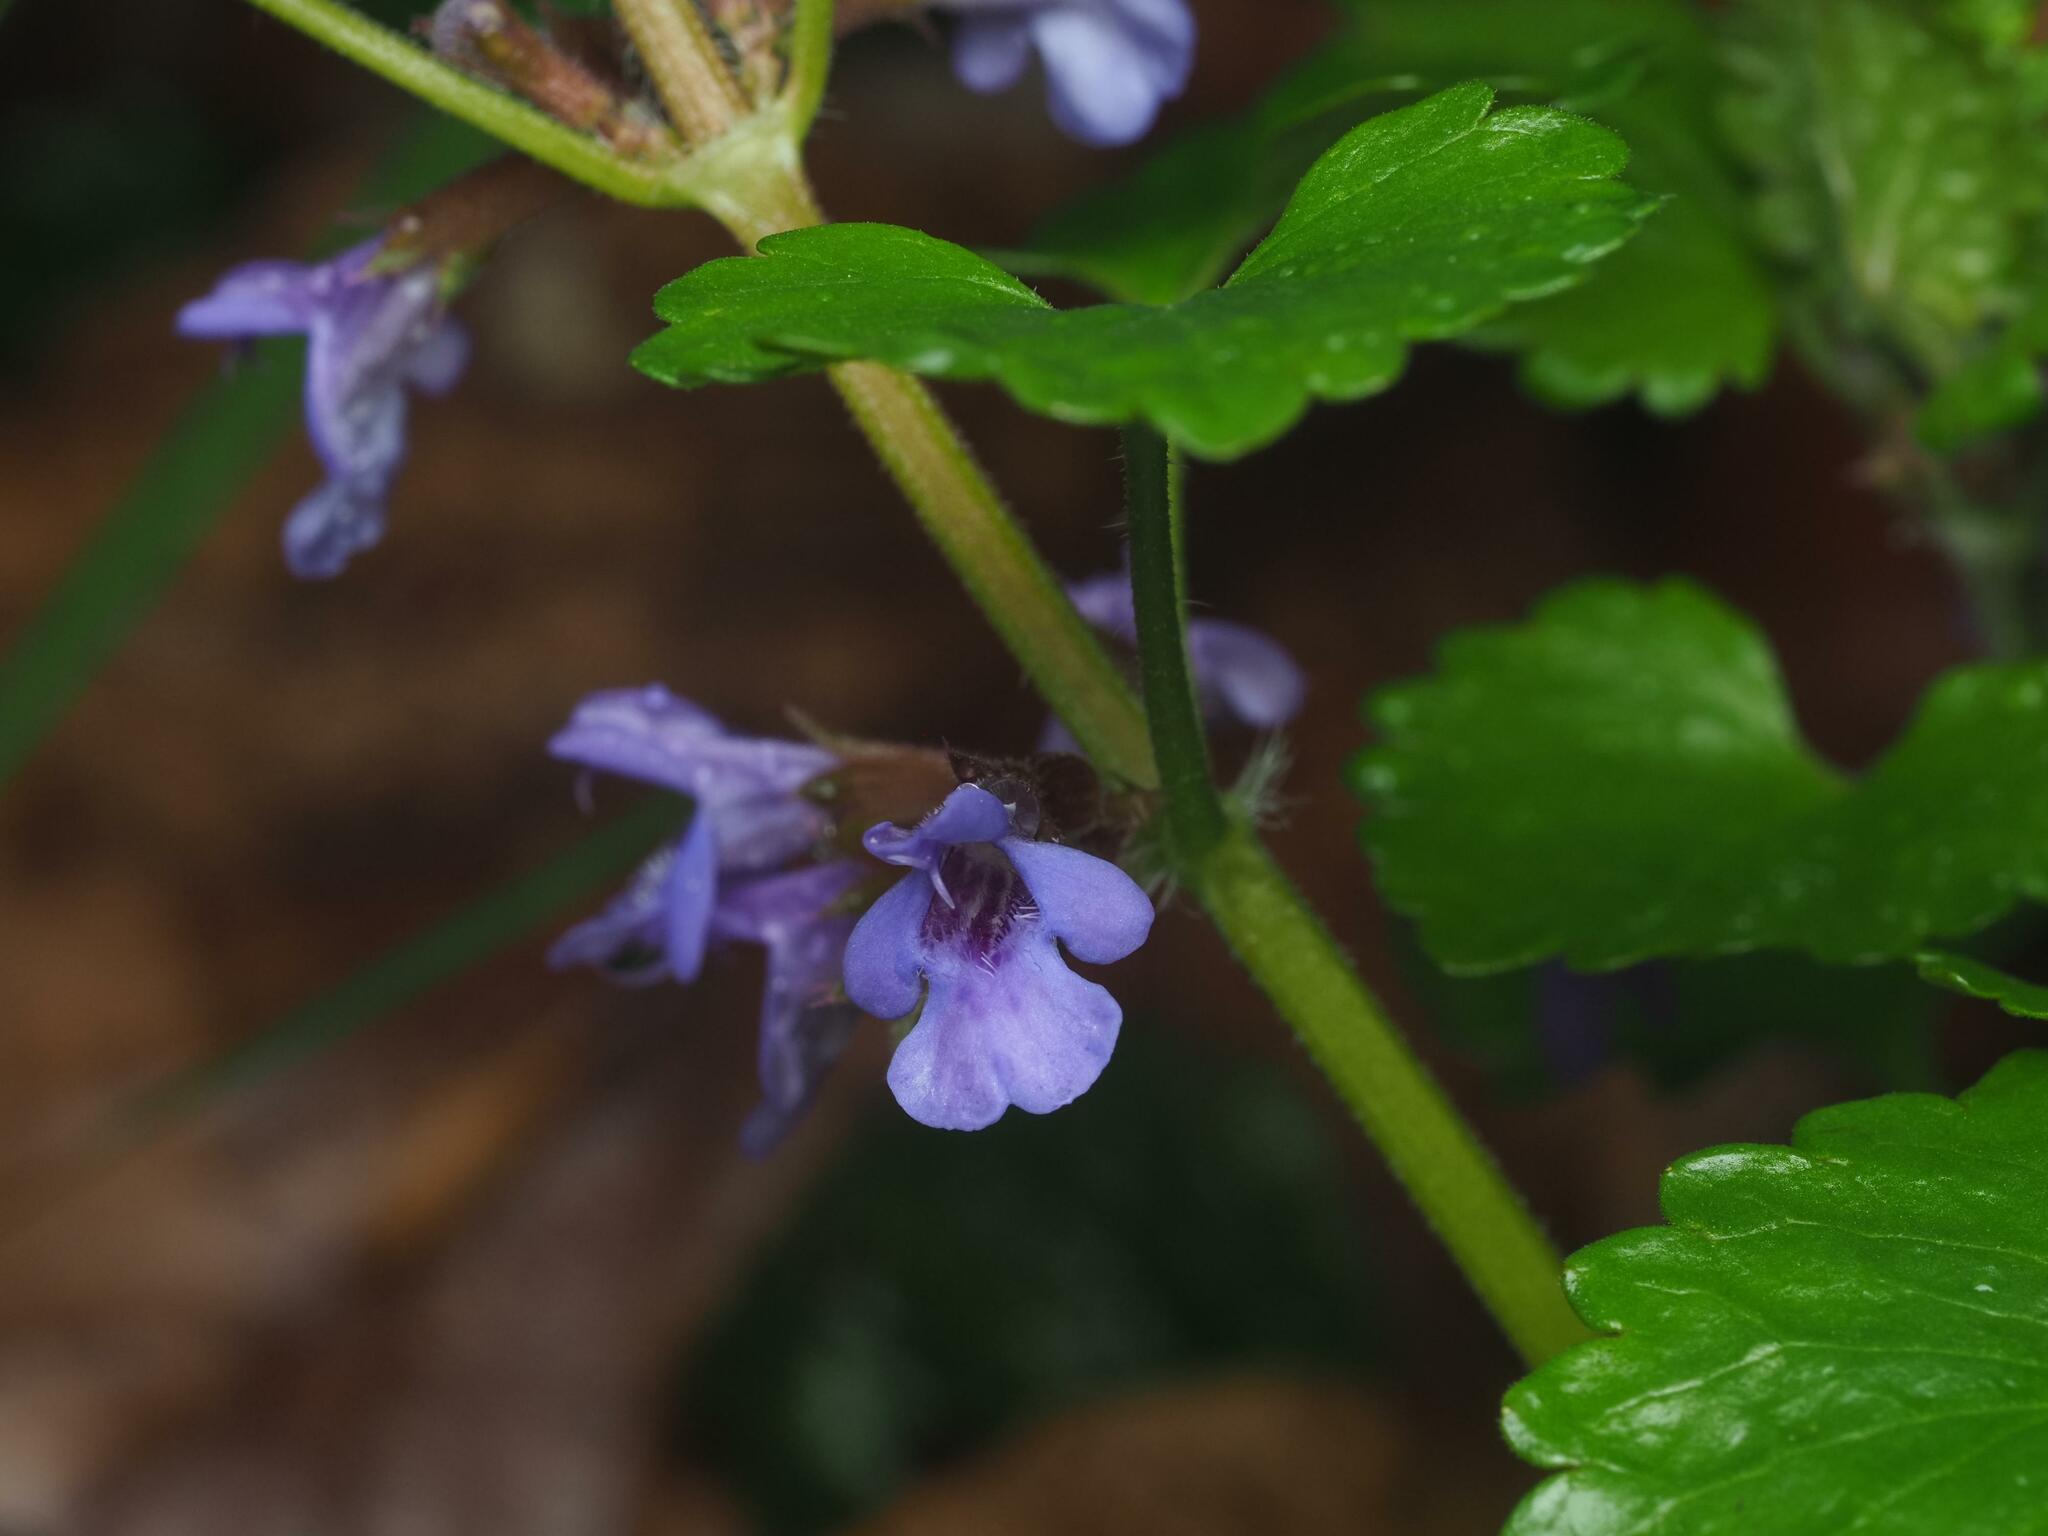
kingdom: Plantae
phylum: Tracheophyta
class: Magnoliopsida
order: Lamiales
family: Lamiaceae
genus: Glechoma
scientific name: Glechoma hederacea
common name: Ground ivy
